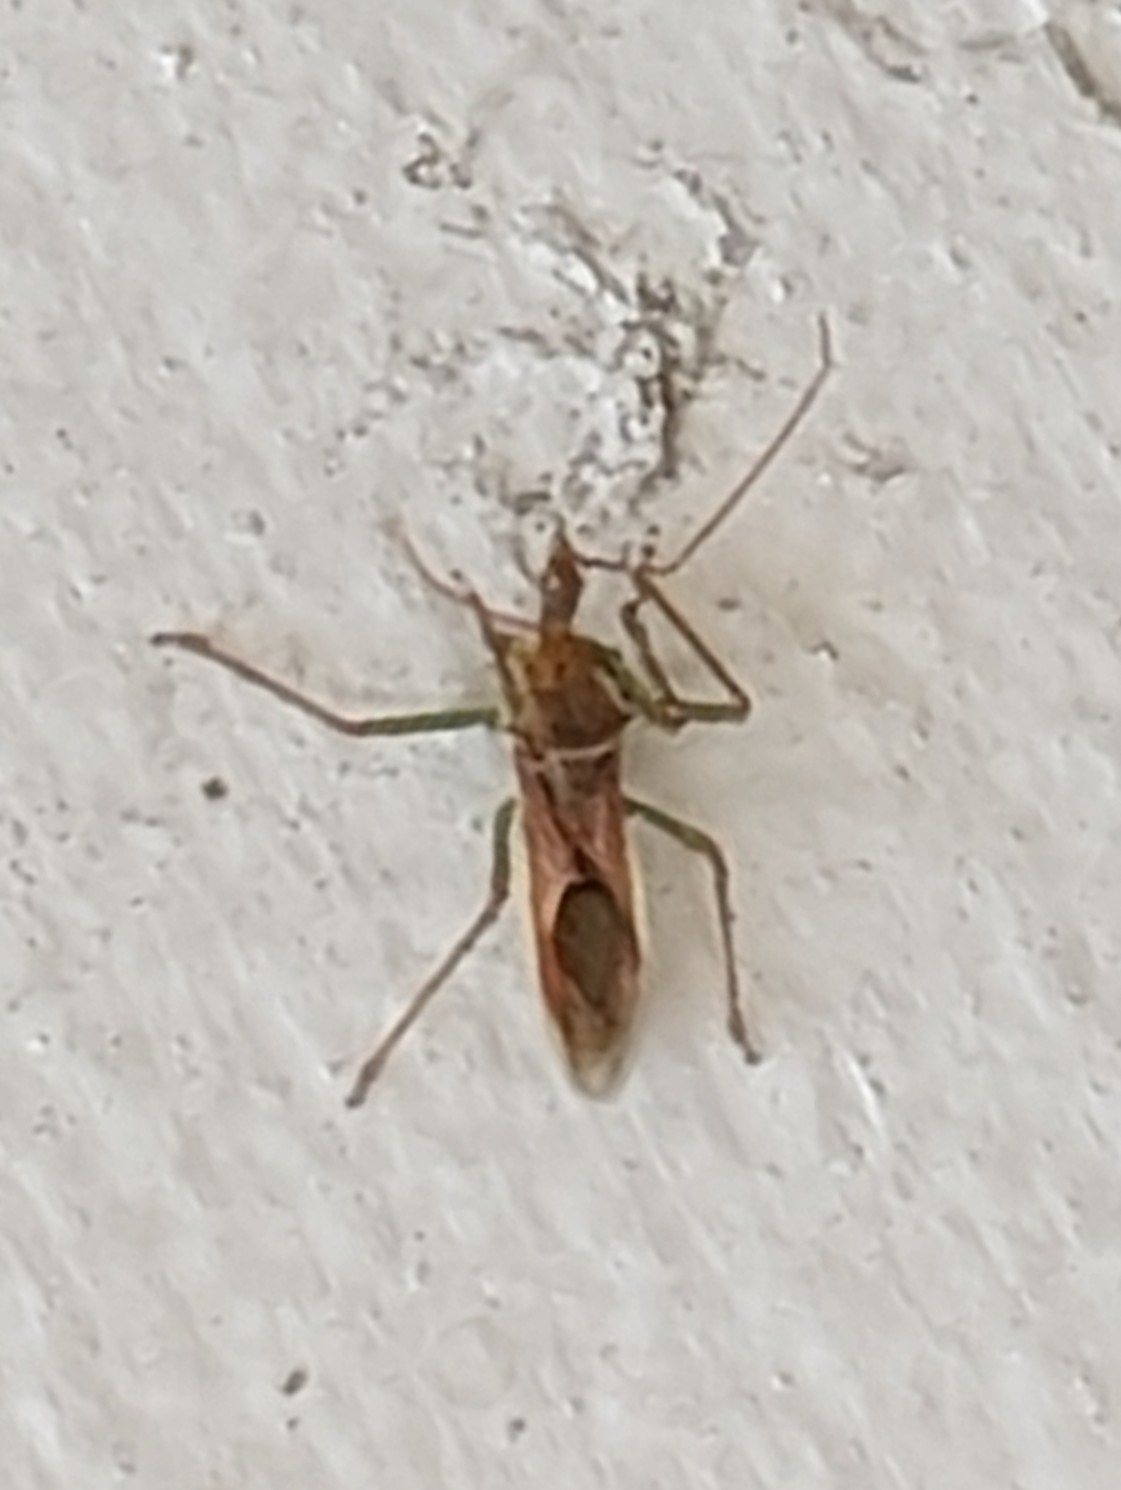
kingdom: Animalia
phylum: Arthropoda
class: Insecta
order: Hemiptera
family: Reduviidae
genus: Zelus
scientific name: Zelus renardii
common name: Assassin bug
